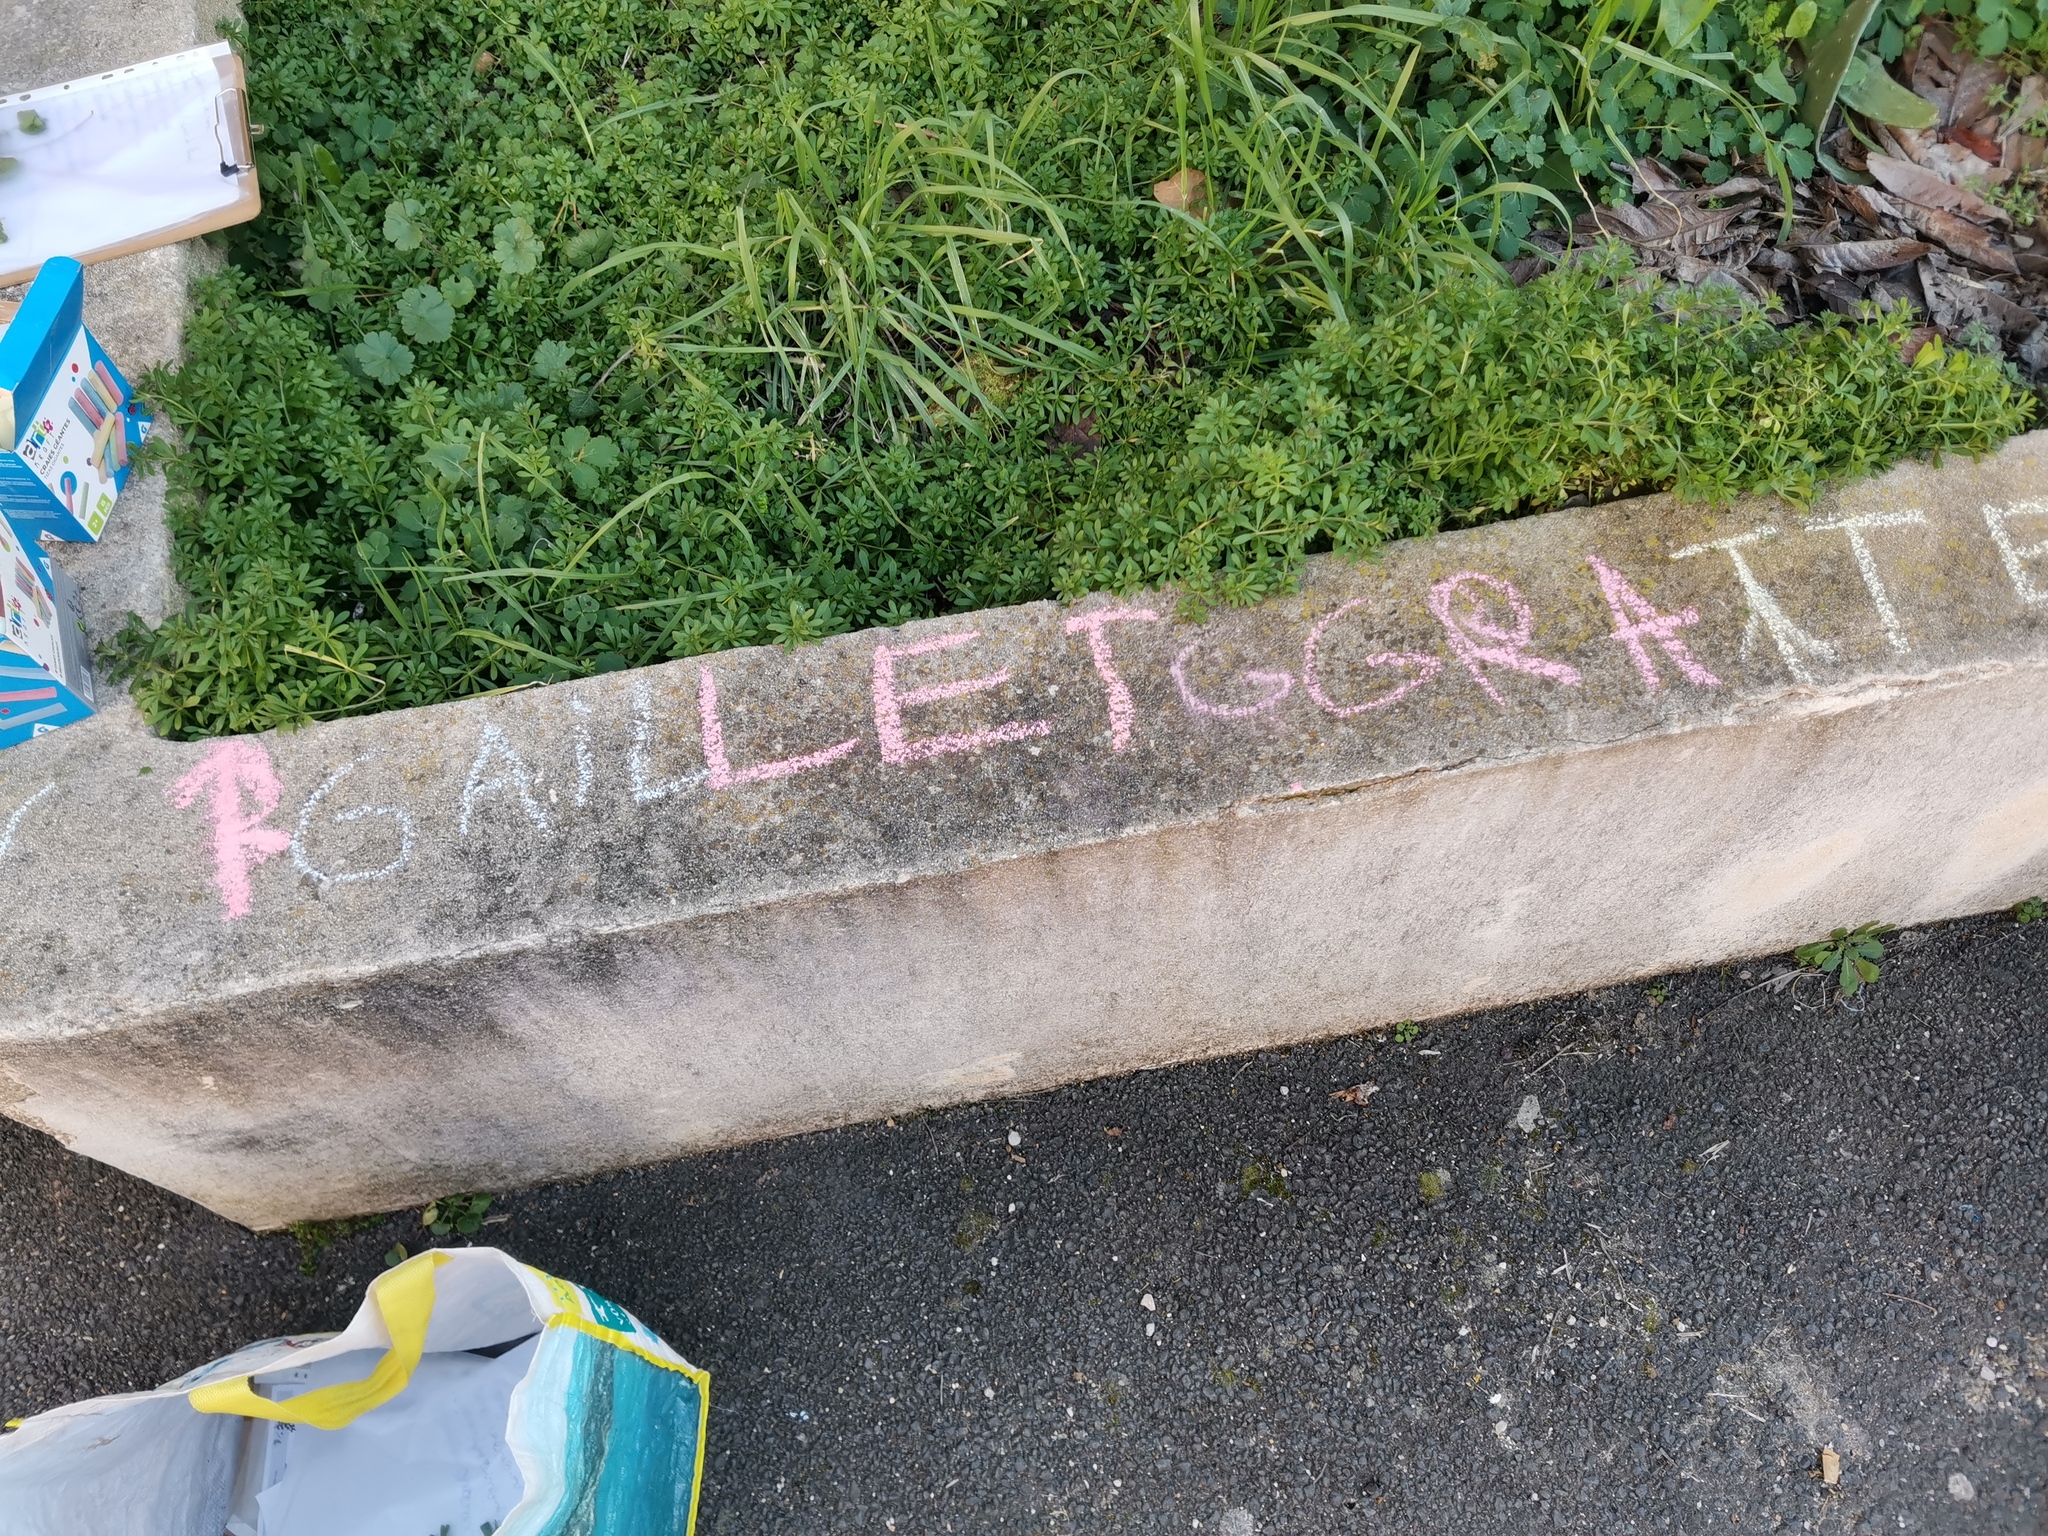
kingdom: Plantae
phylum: Tracheophyta
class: Magnoliopsida
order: Gentianales
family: Rubiaceae
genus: Galium
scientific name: Galium aparine
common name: Cleavers
